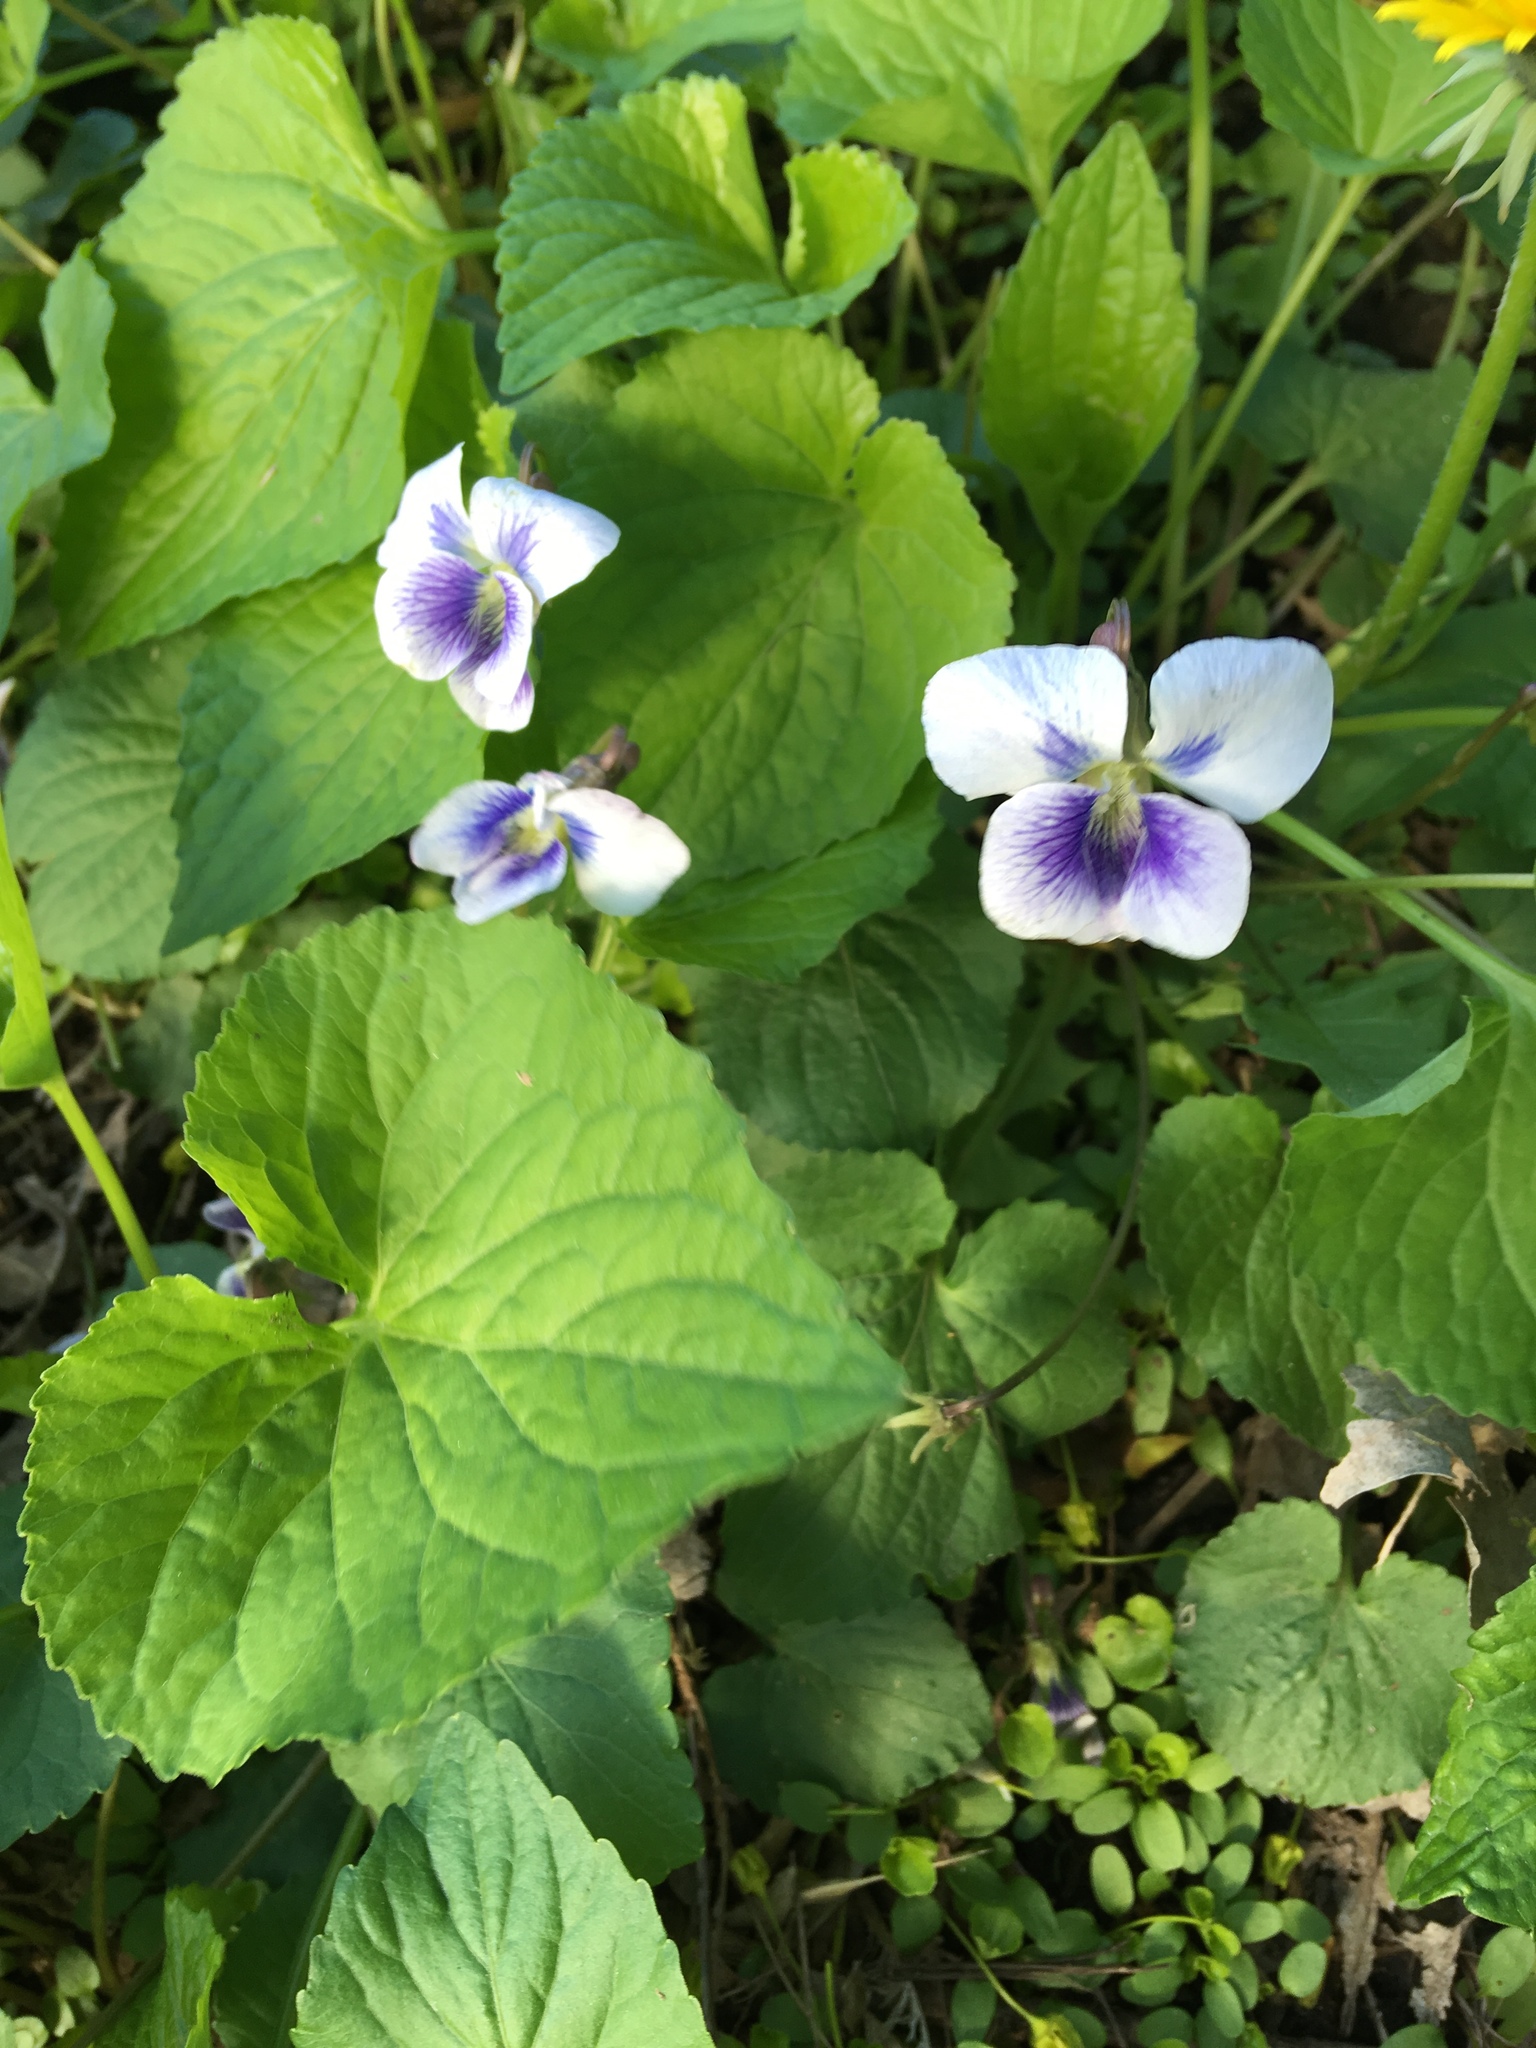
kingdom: Plantae
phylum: Tracheophyta
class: Magnoliopsida
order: Malpighiales
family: Violaceae
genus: Viola
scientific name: Viola sororia
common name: Dooryard violet
